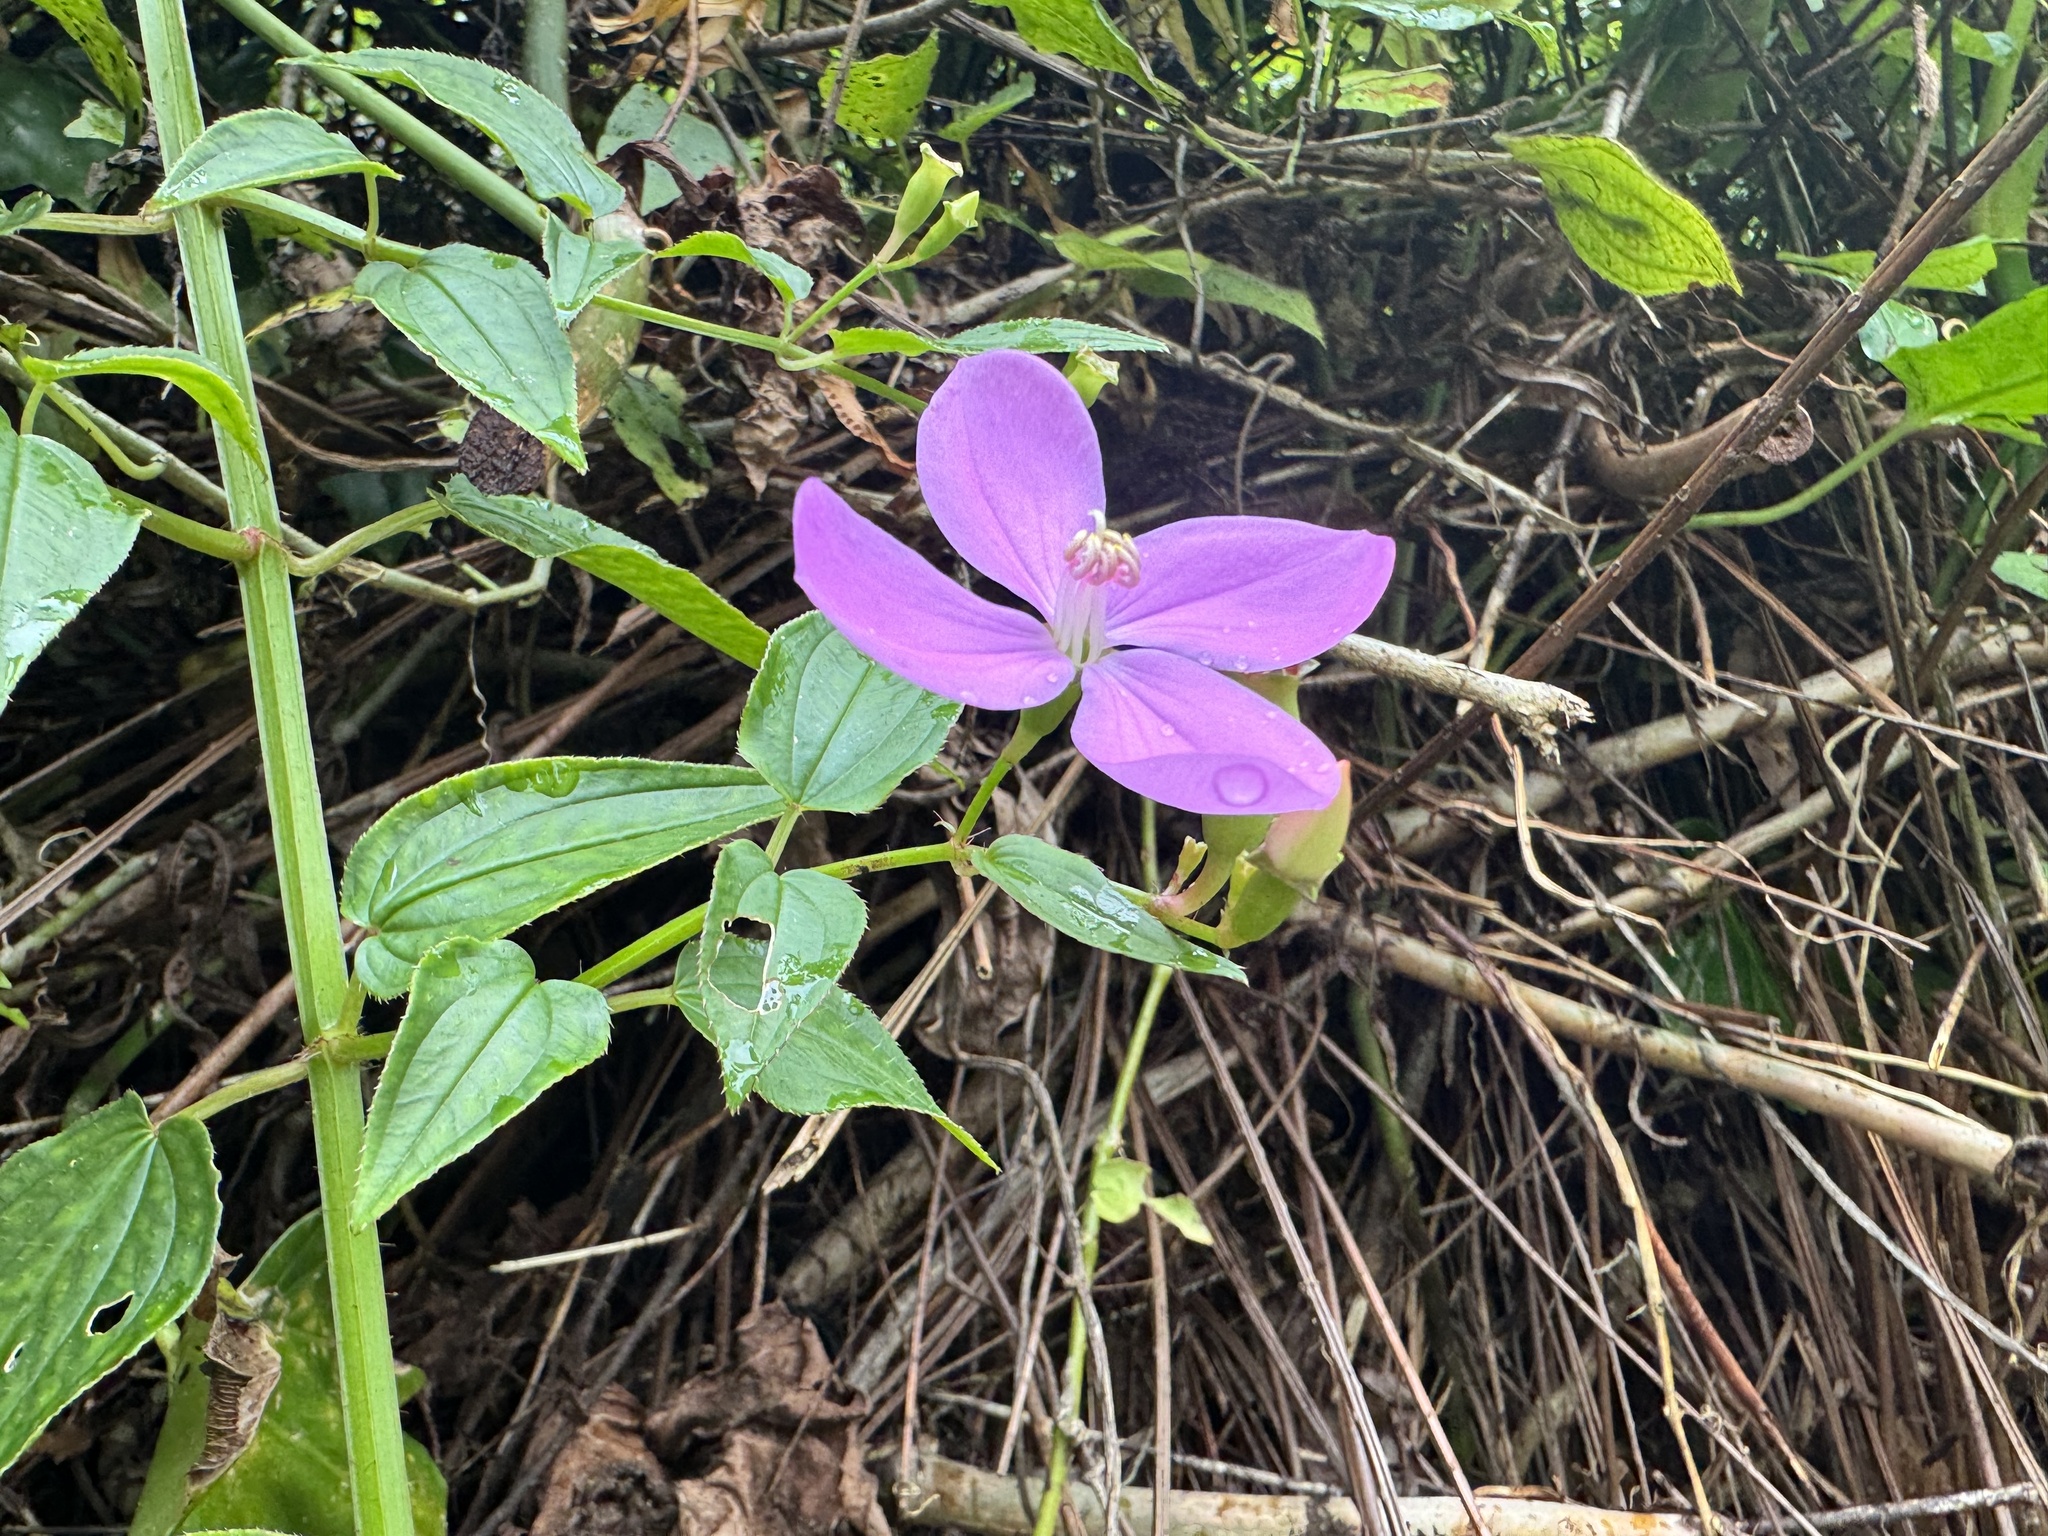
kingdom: Plantae
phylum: Tracheophyta
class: Magnoliopsida
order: Myrtales
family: Melastomataceae
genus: Arthrostemma
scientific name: Arthrostemma ciliatum
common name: Everblooming eavender
